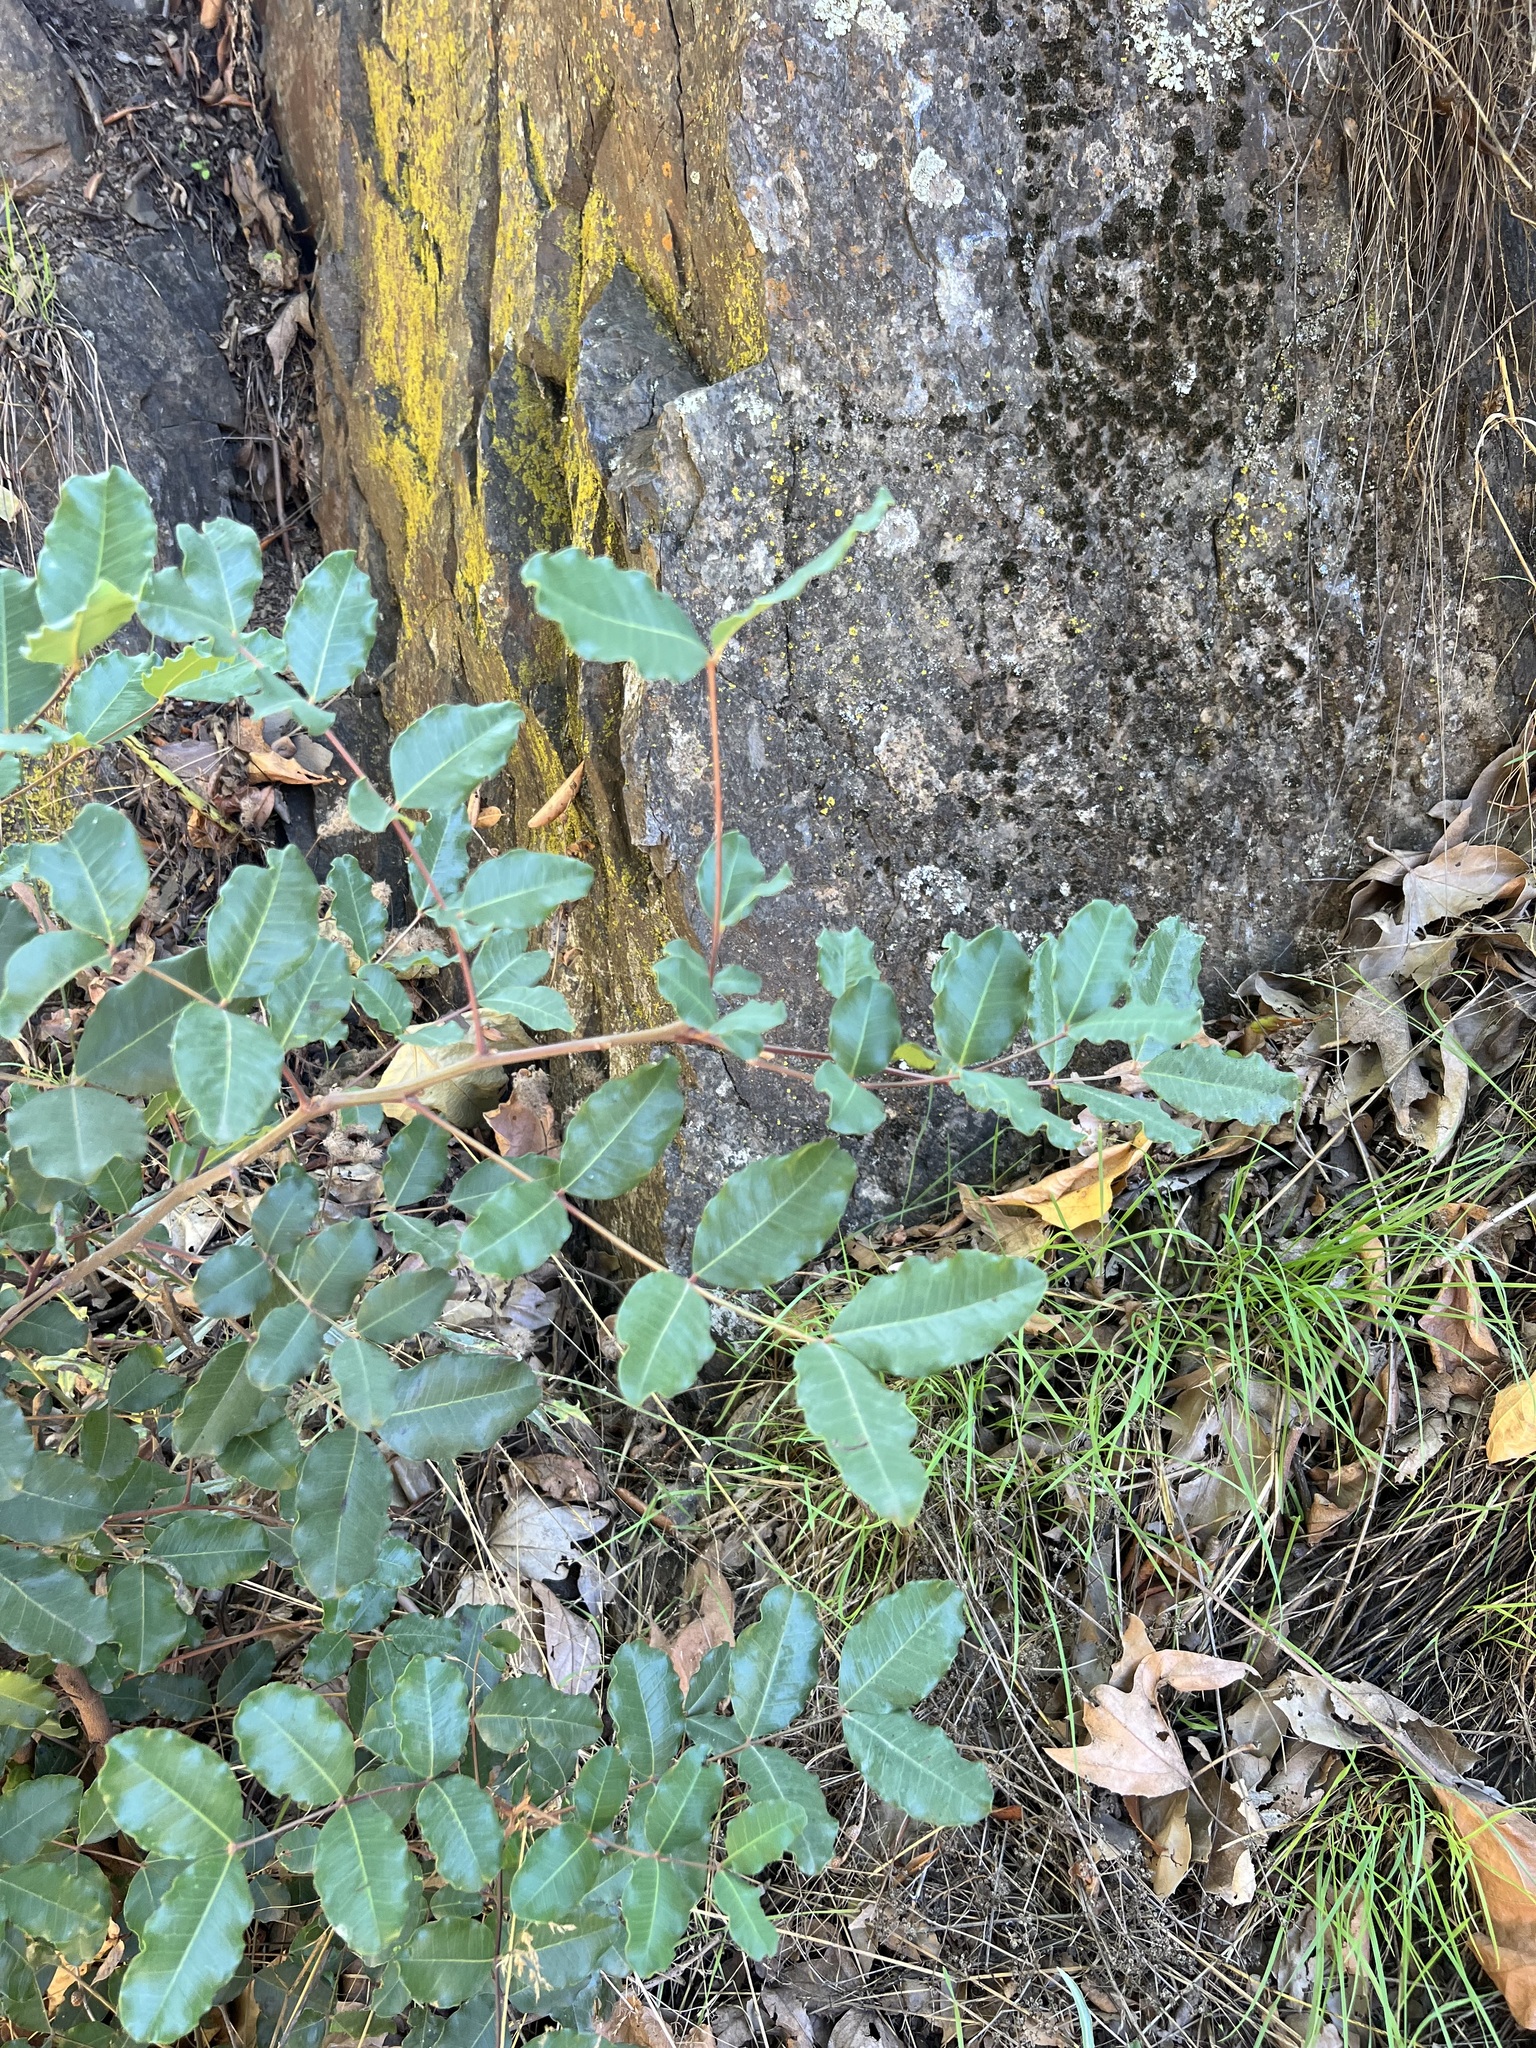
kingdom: Plantae
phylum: Tracheophyta
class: Magnoliopsida
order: Fabales
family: Fabaceae
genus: Ceratonia
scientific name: Ceratonia siliqua
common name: Carob
